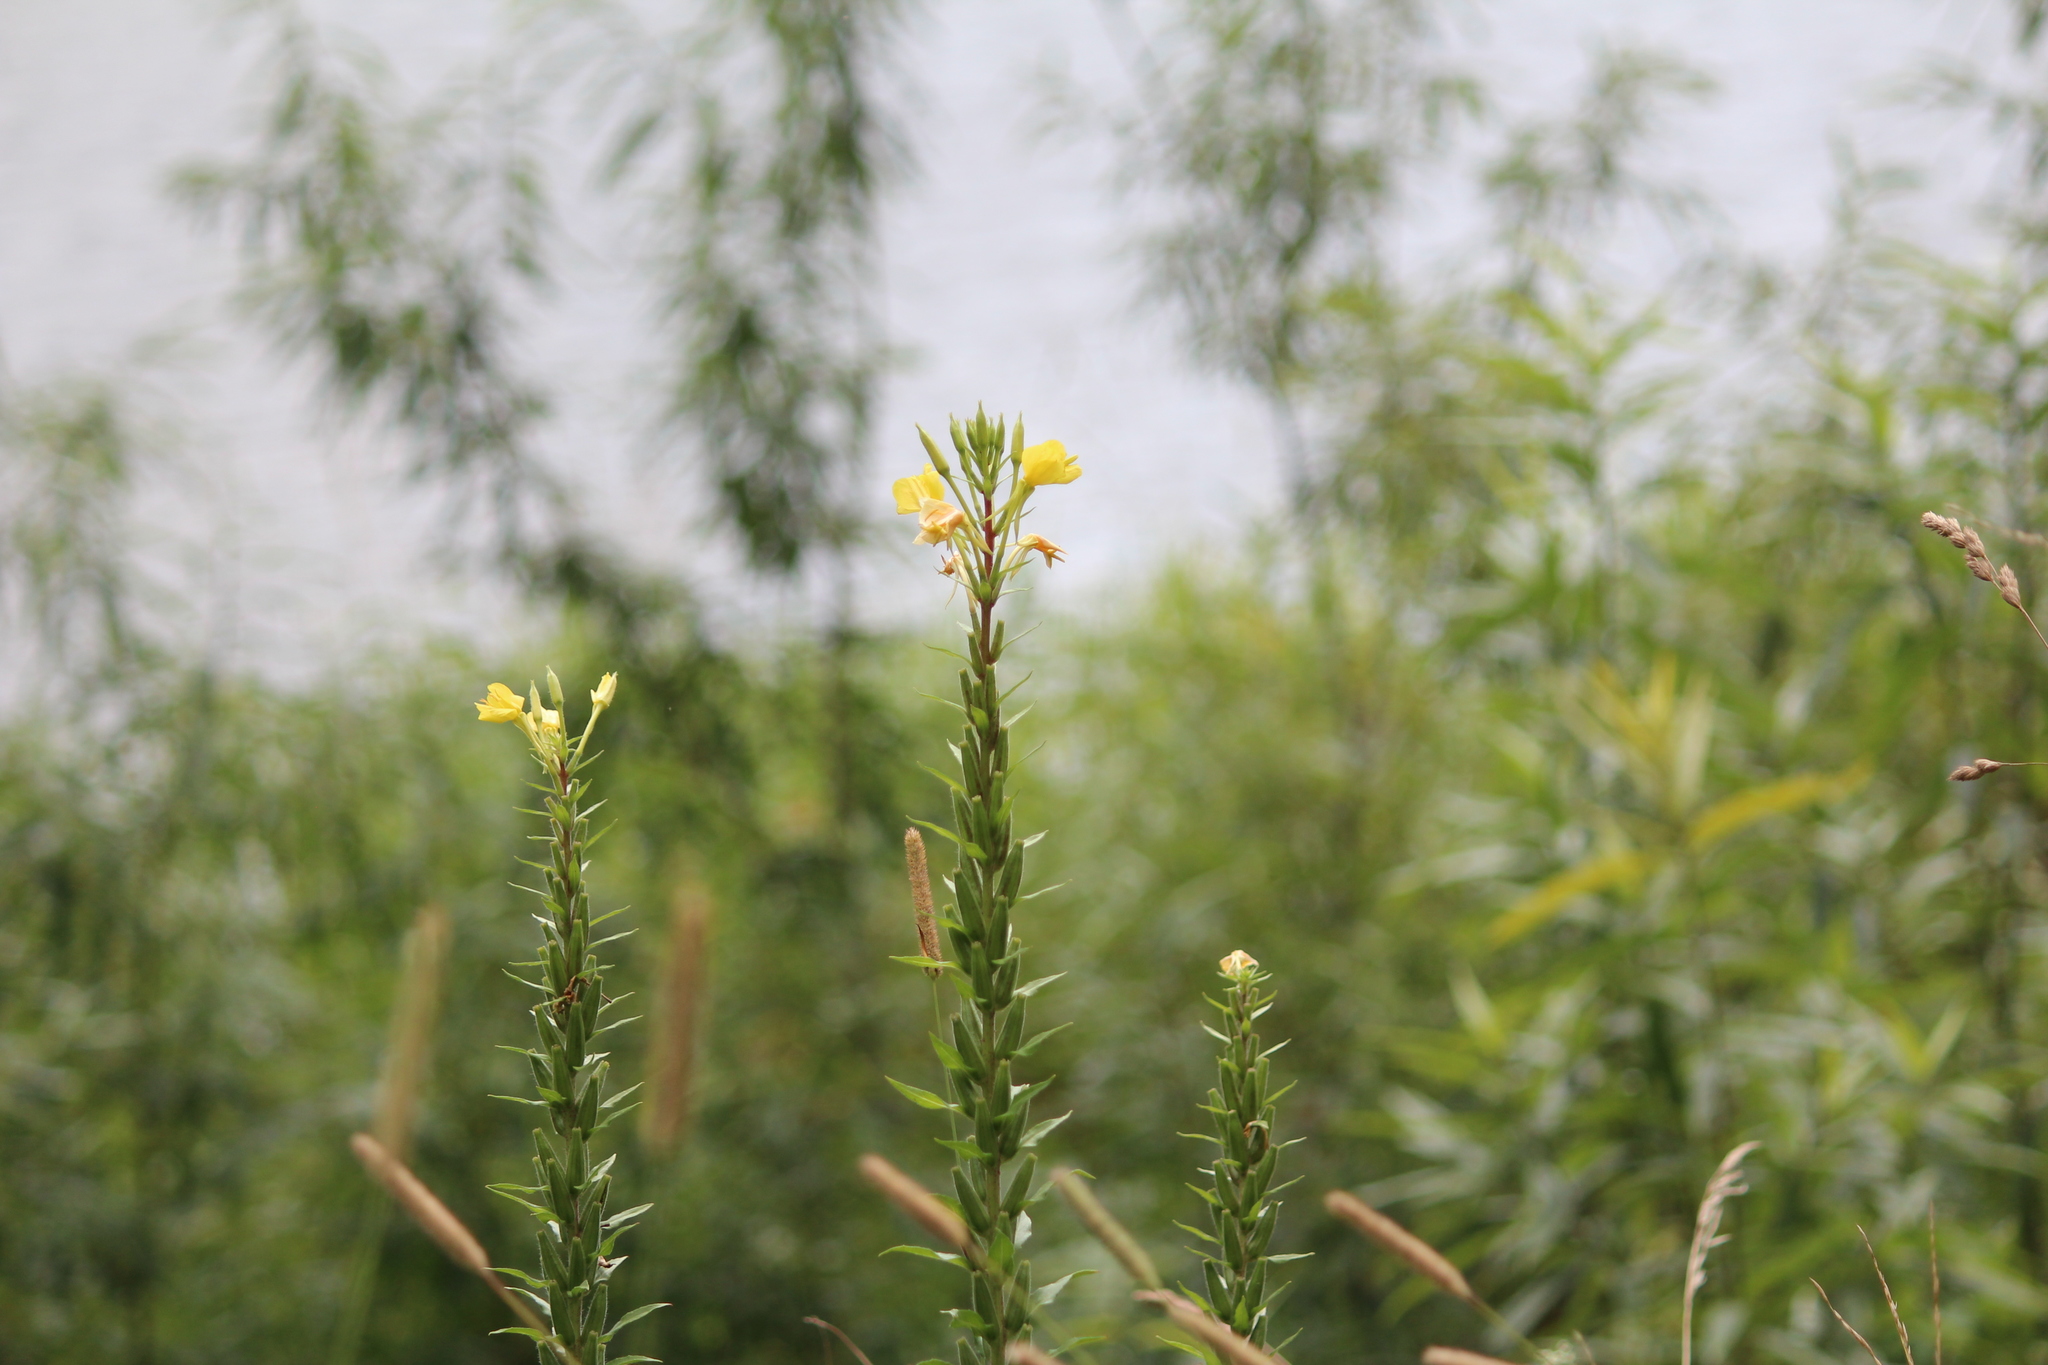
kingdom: Plantae
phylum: Tracheophyta
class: Magnoliopsida
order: Myrtales
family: Onagraceae
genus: Oenothera
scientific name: Oenothera rubricaulis
